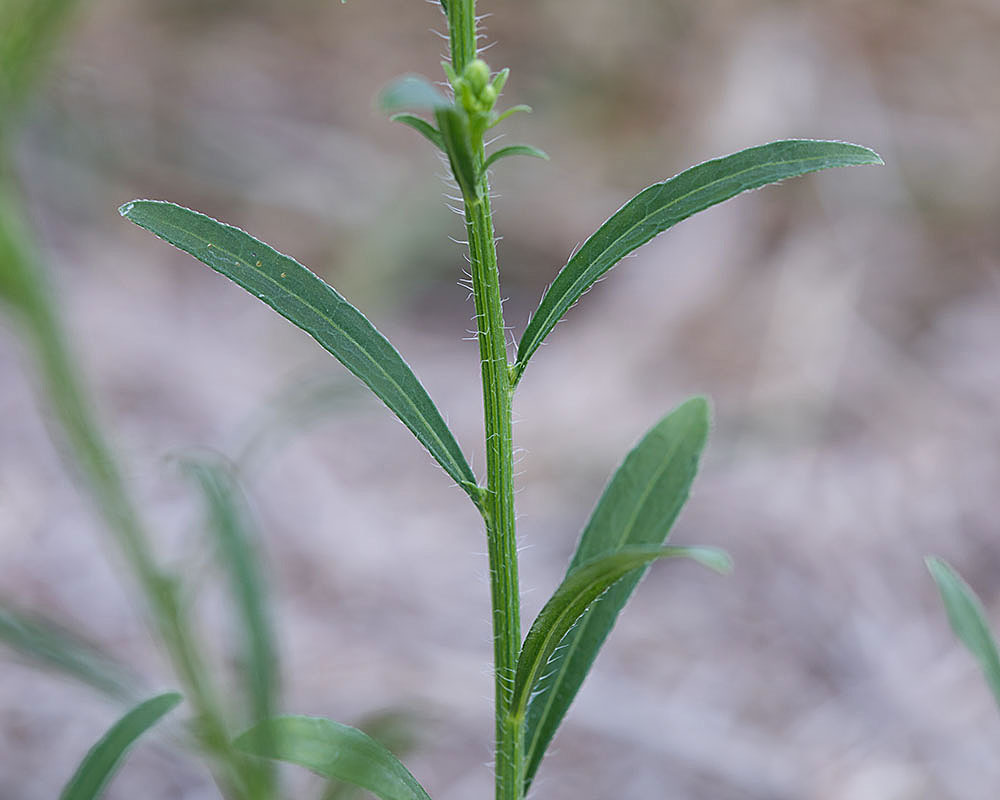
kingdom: Plantae
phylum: Tracheophyta
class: Magnoliopsida
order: Asterales
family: Asteraceae
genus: Erigeron
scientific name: Erigeron canadensis
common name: Canadian fleabane
